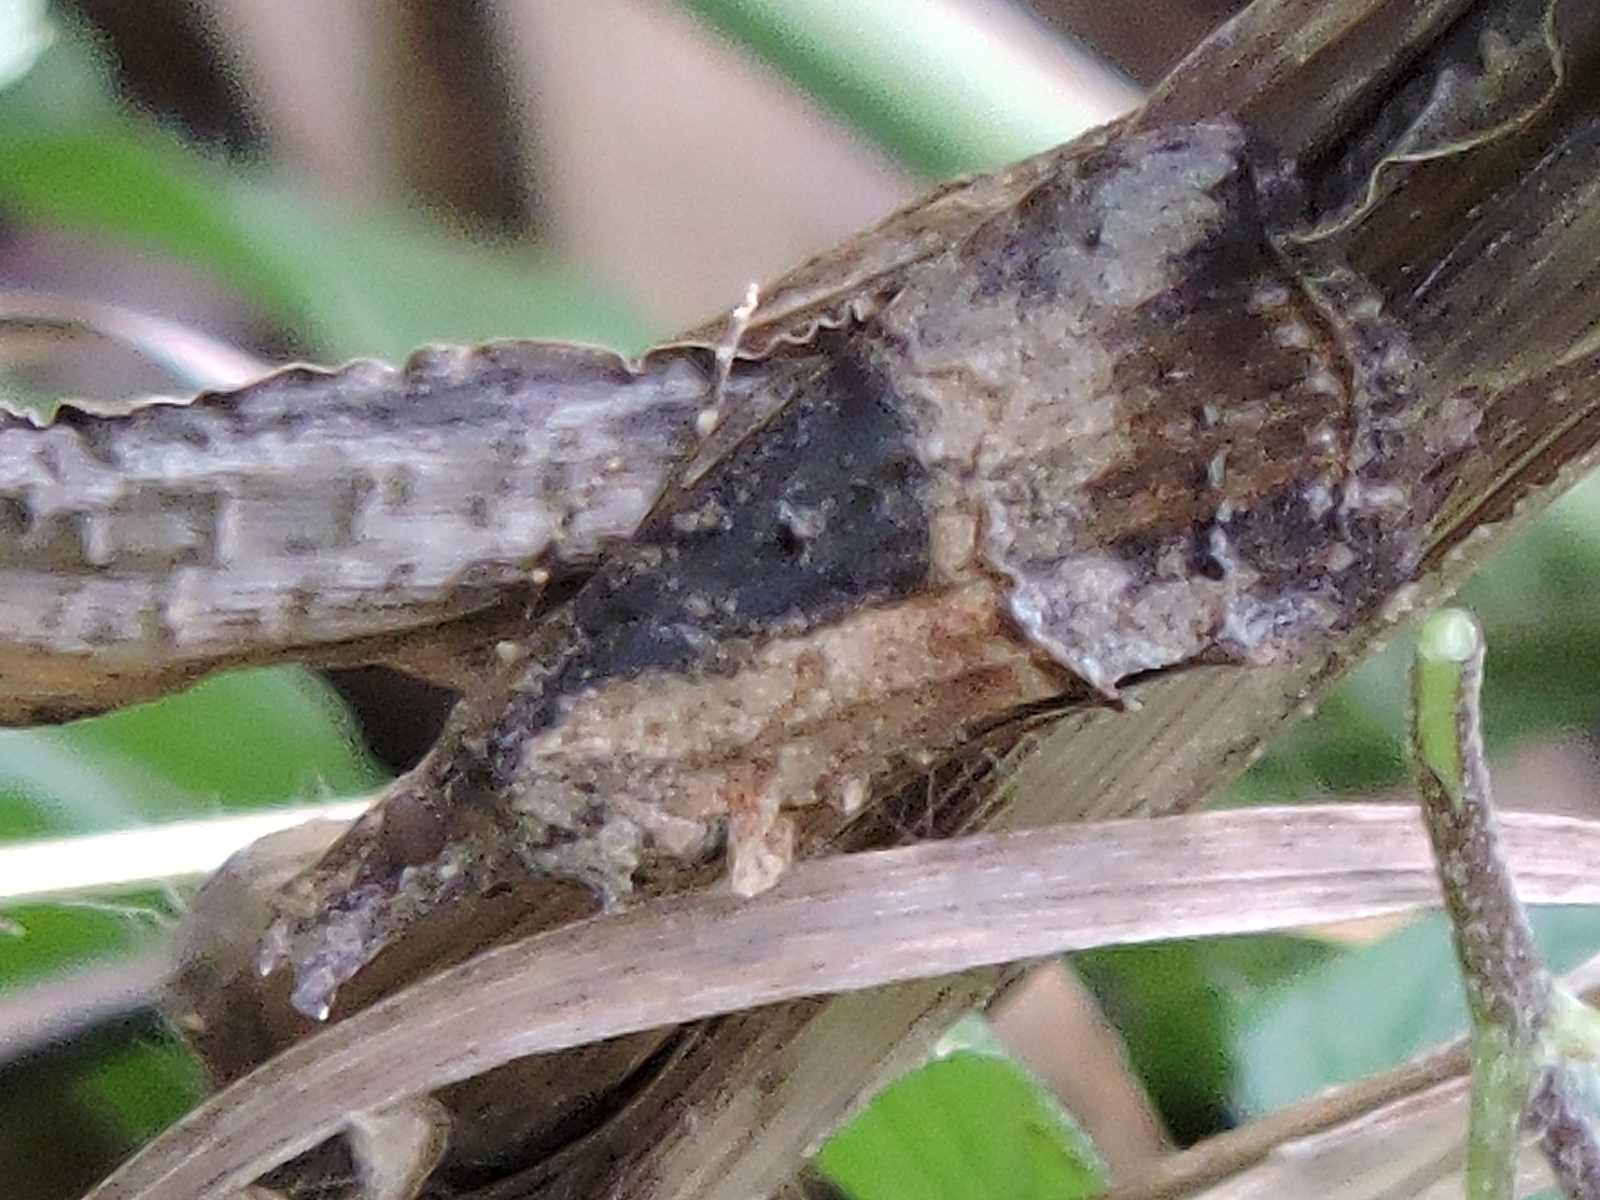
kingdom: Animalia
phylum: Arthropoda
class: Insecta
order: Lepidoptera
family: Erebidae
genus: Hypena
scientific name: Hypena scabra
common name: Green cloverworm
